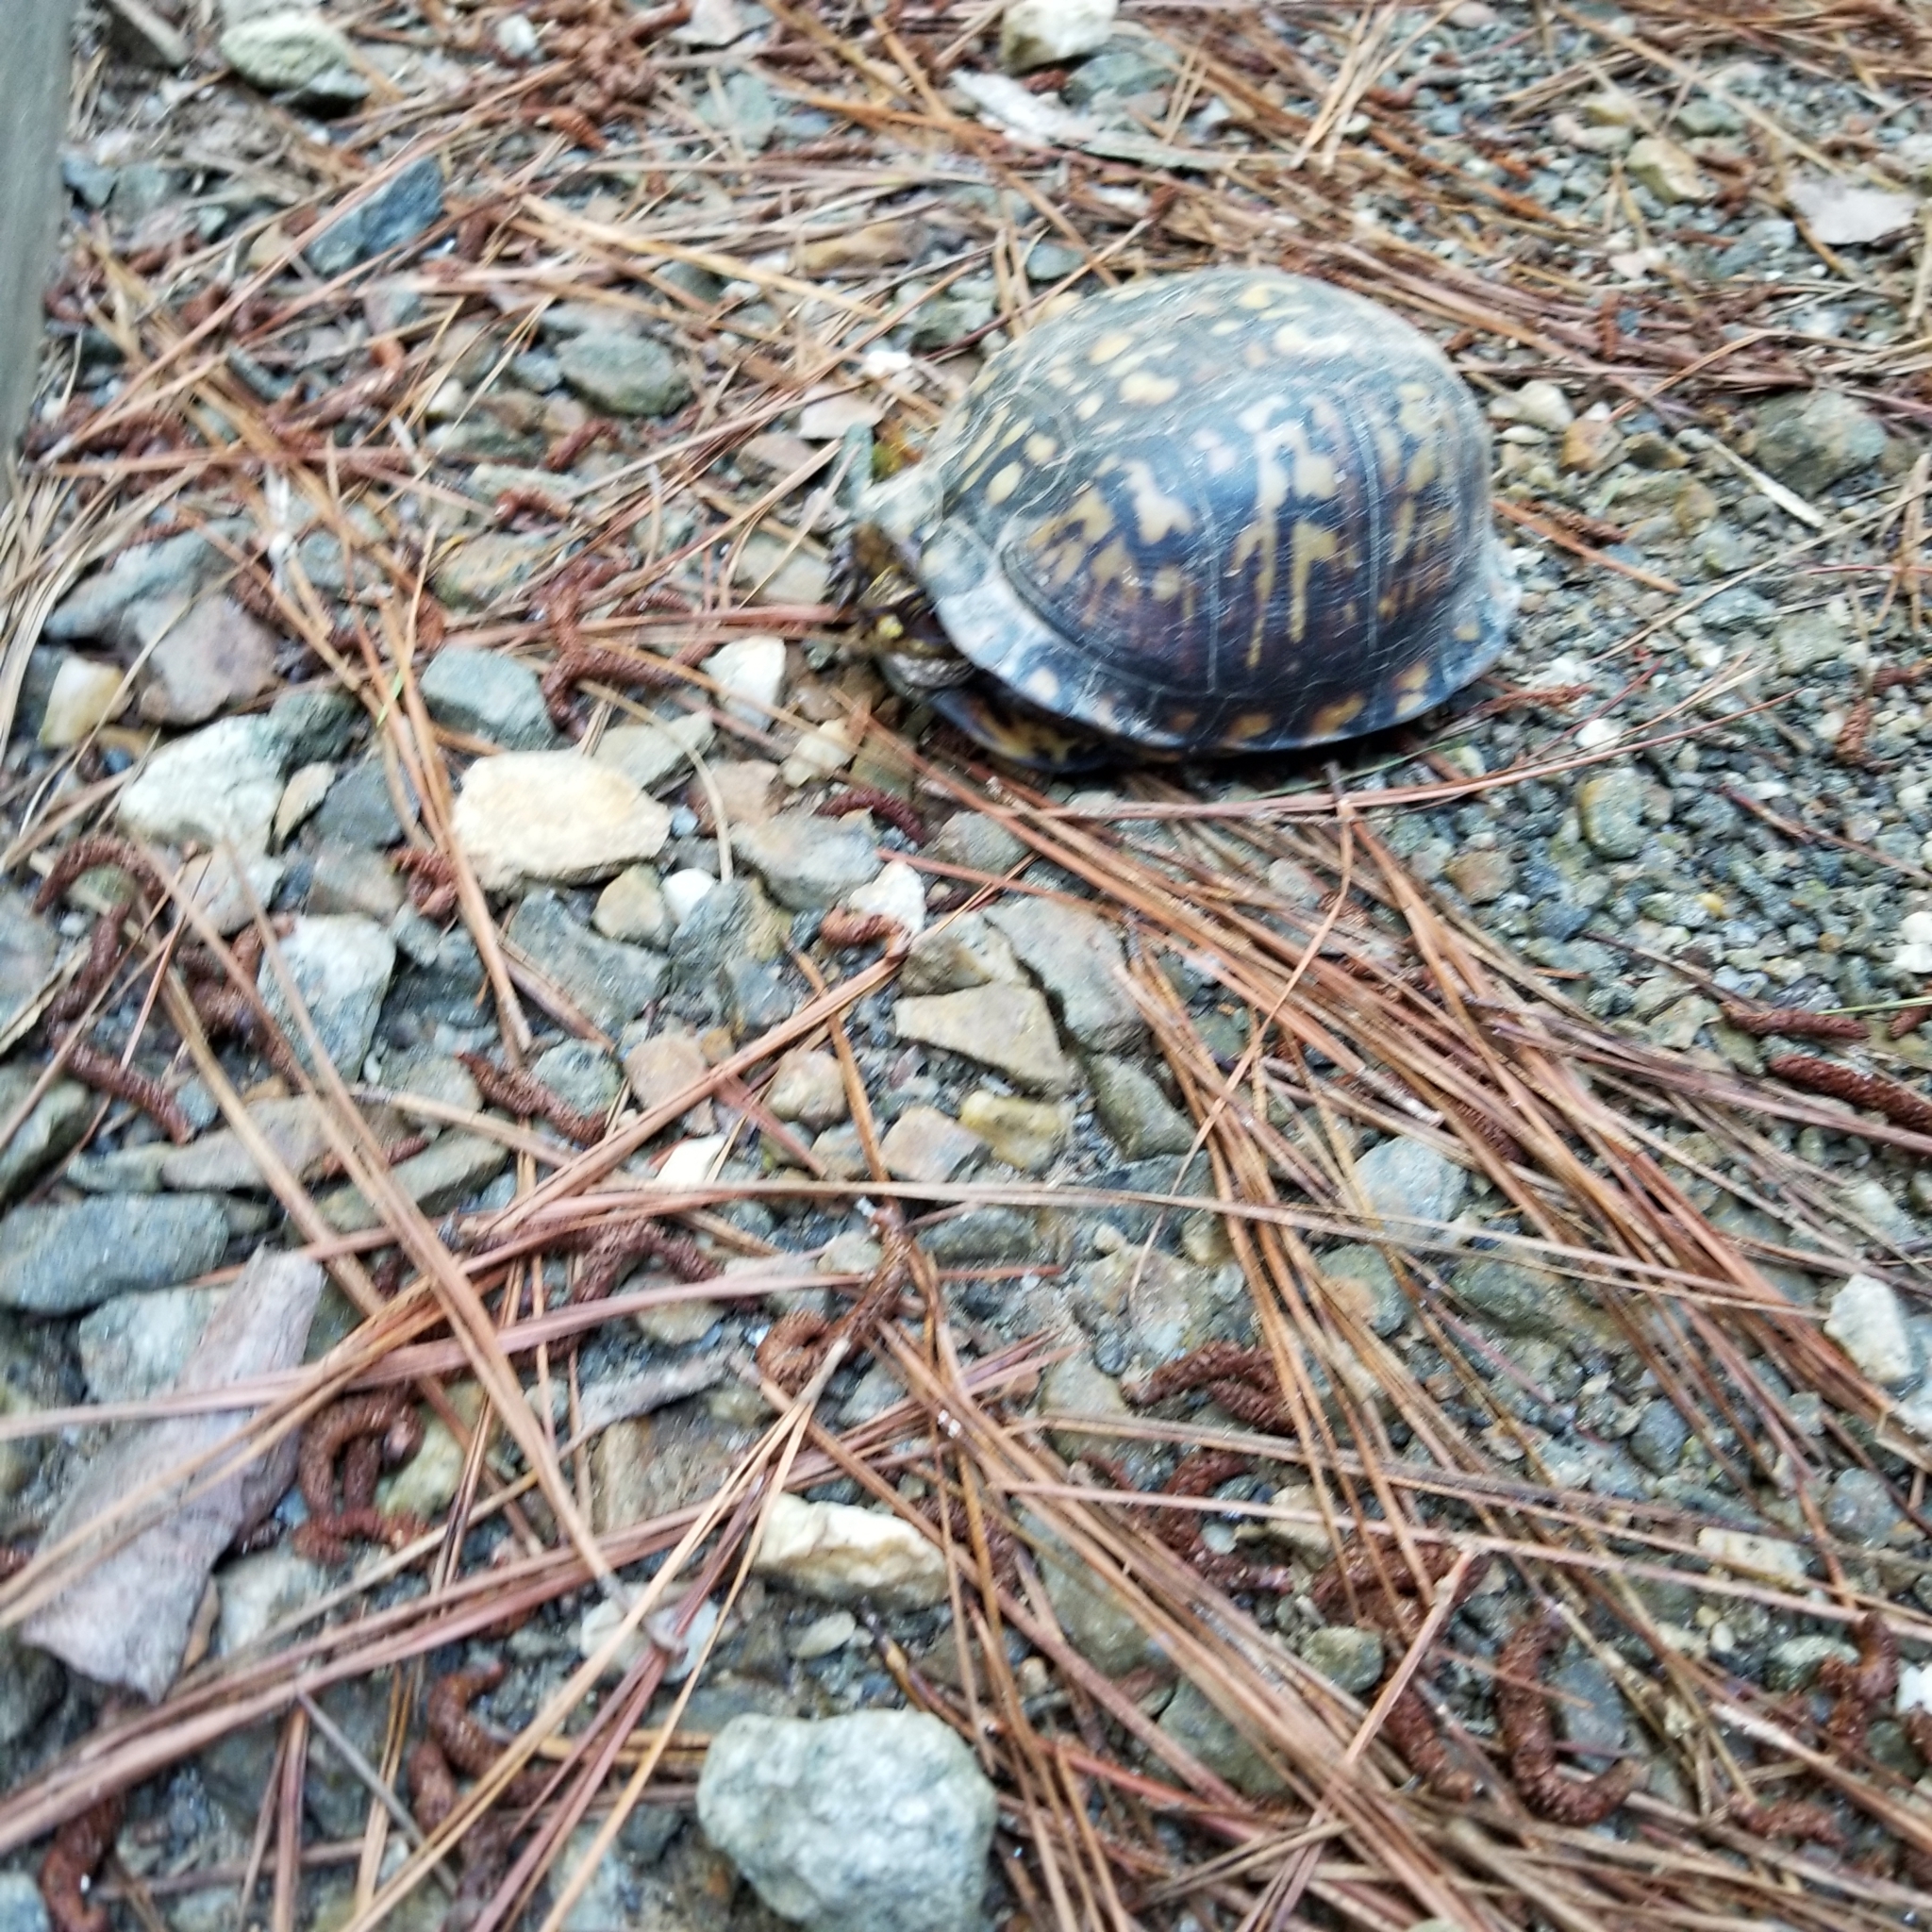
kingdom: Animalia
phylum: Chordata
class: Testudines
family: Emydidae
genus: Terrapene
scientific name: Terrapene carolina
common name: Common box turtle
